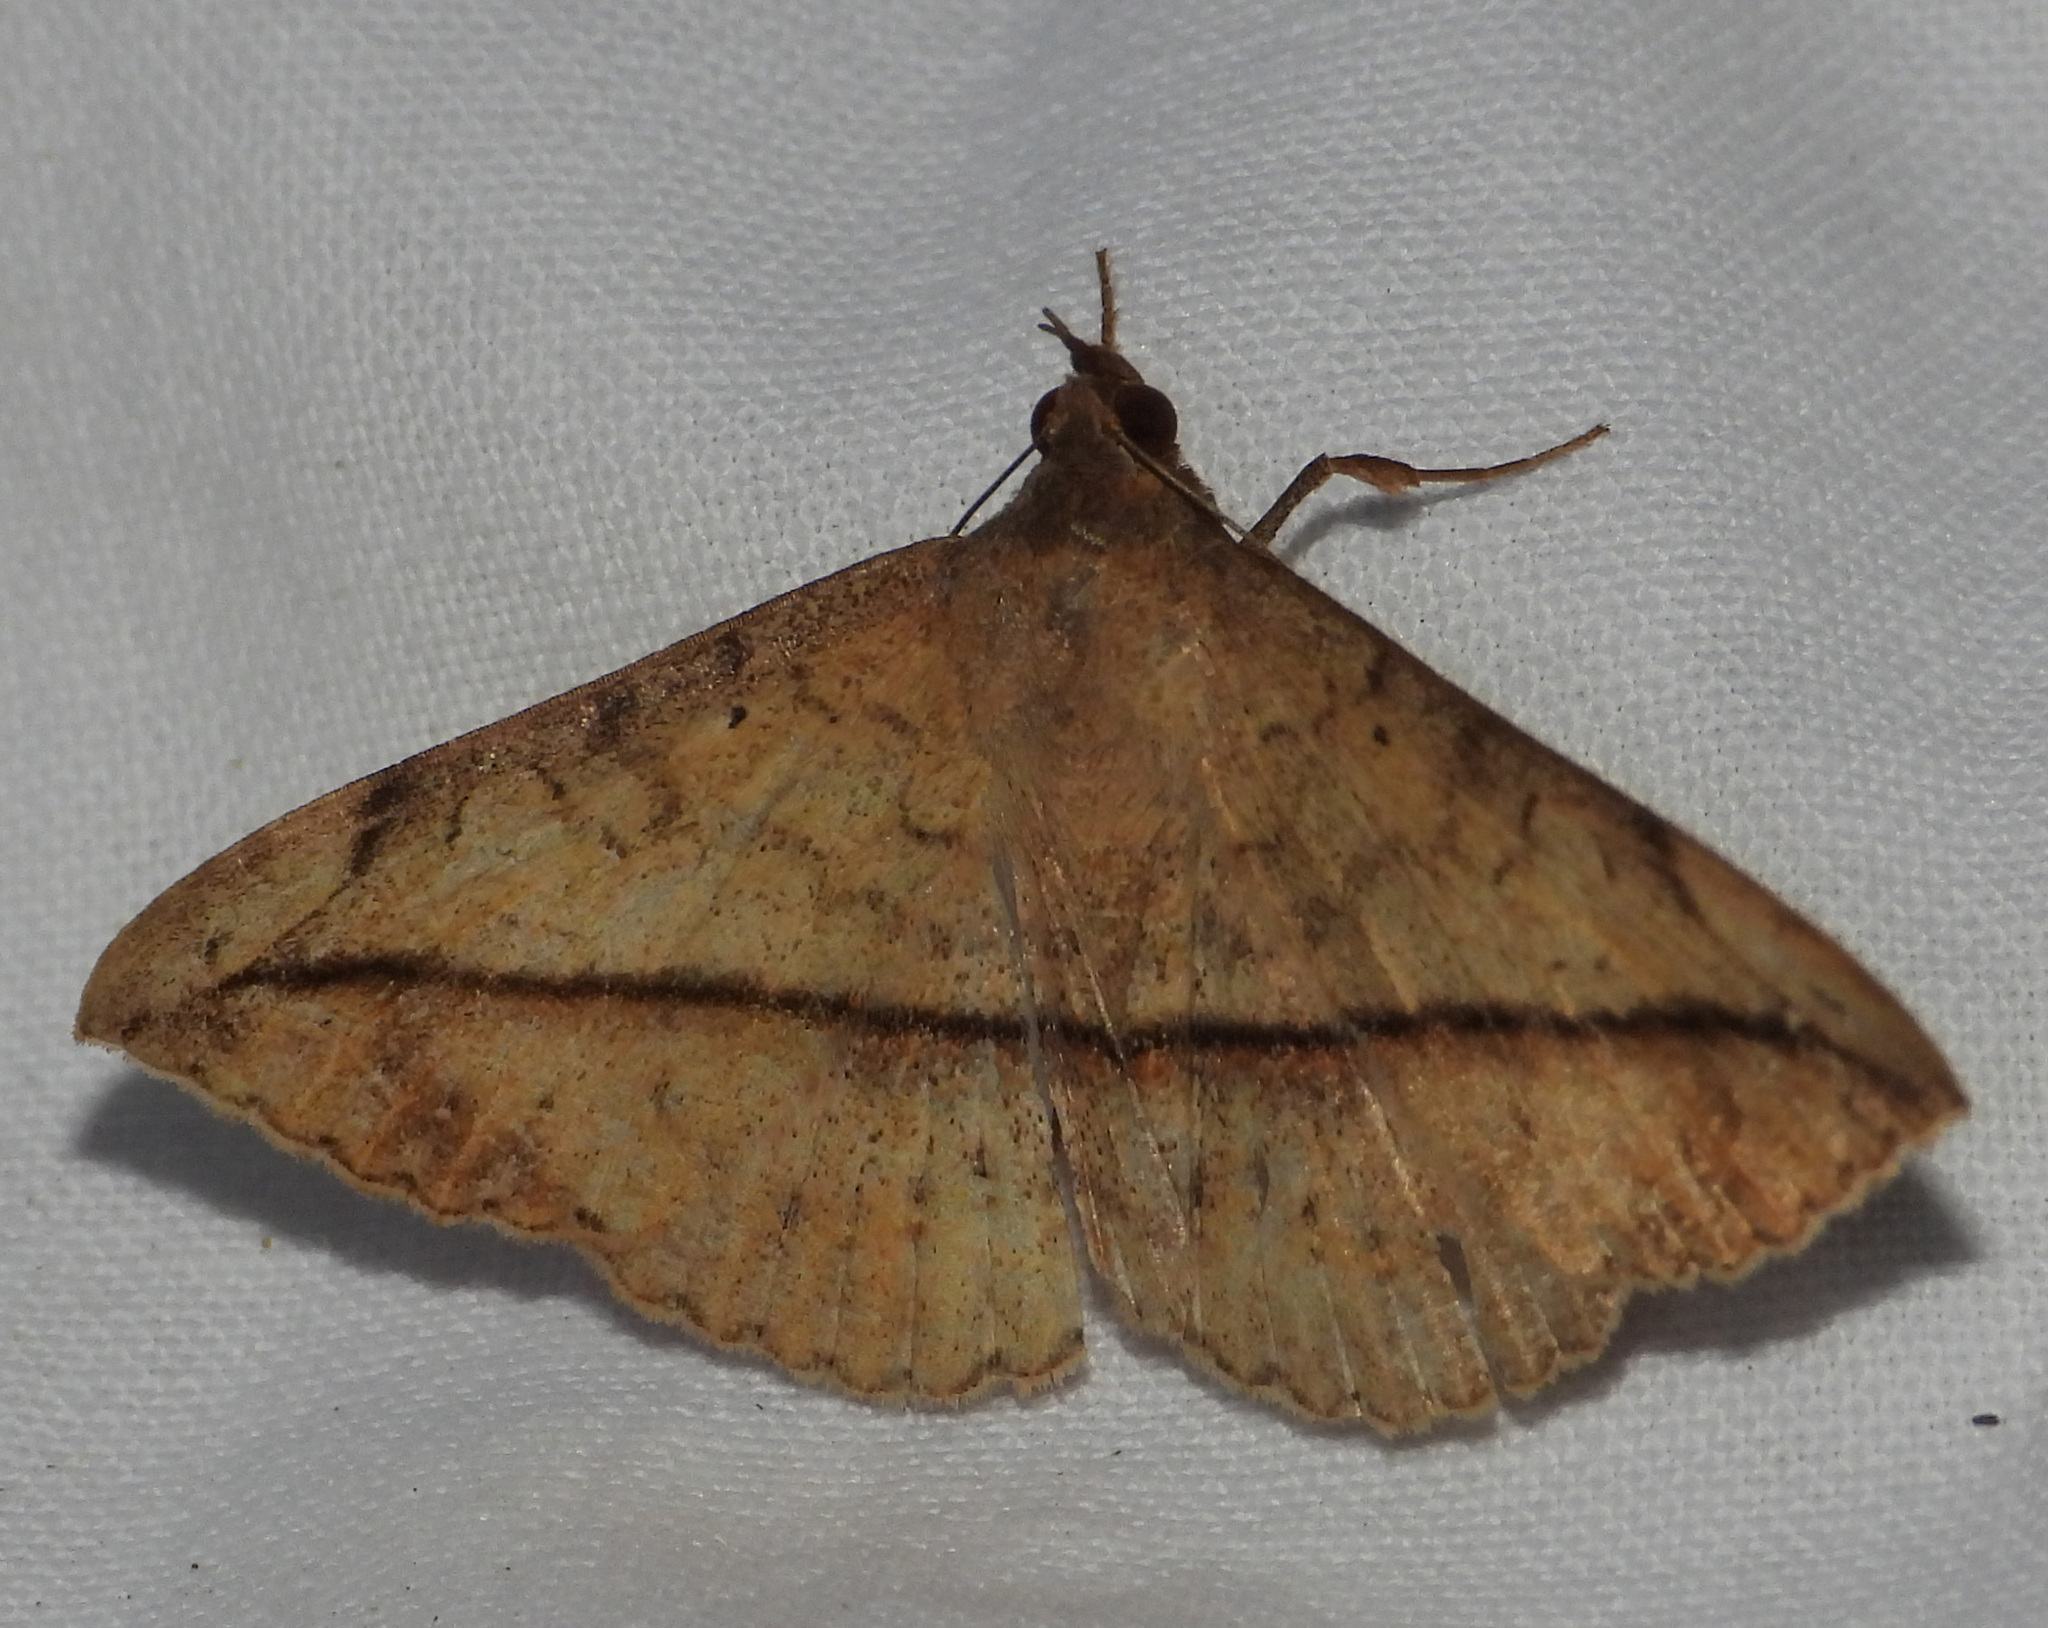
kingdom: Animalia
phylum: Arthropoda
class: Insecta
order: Lepidoptera
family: Erebidae
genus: Anticarsia
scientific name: Anticarsia gemmatalis
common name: Cutworm moth
